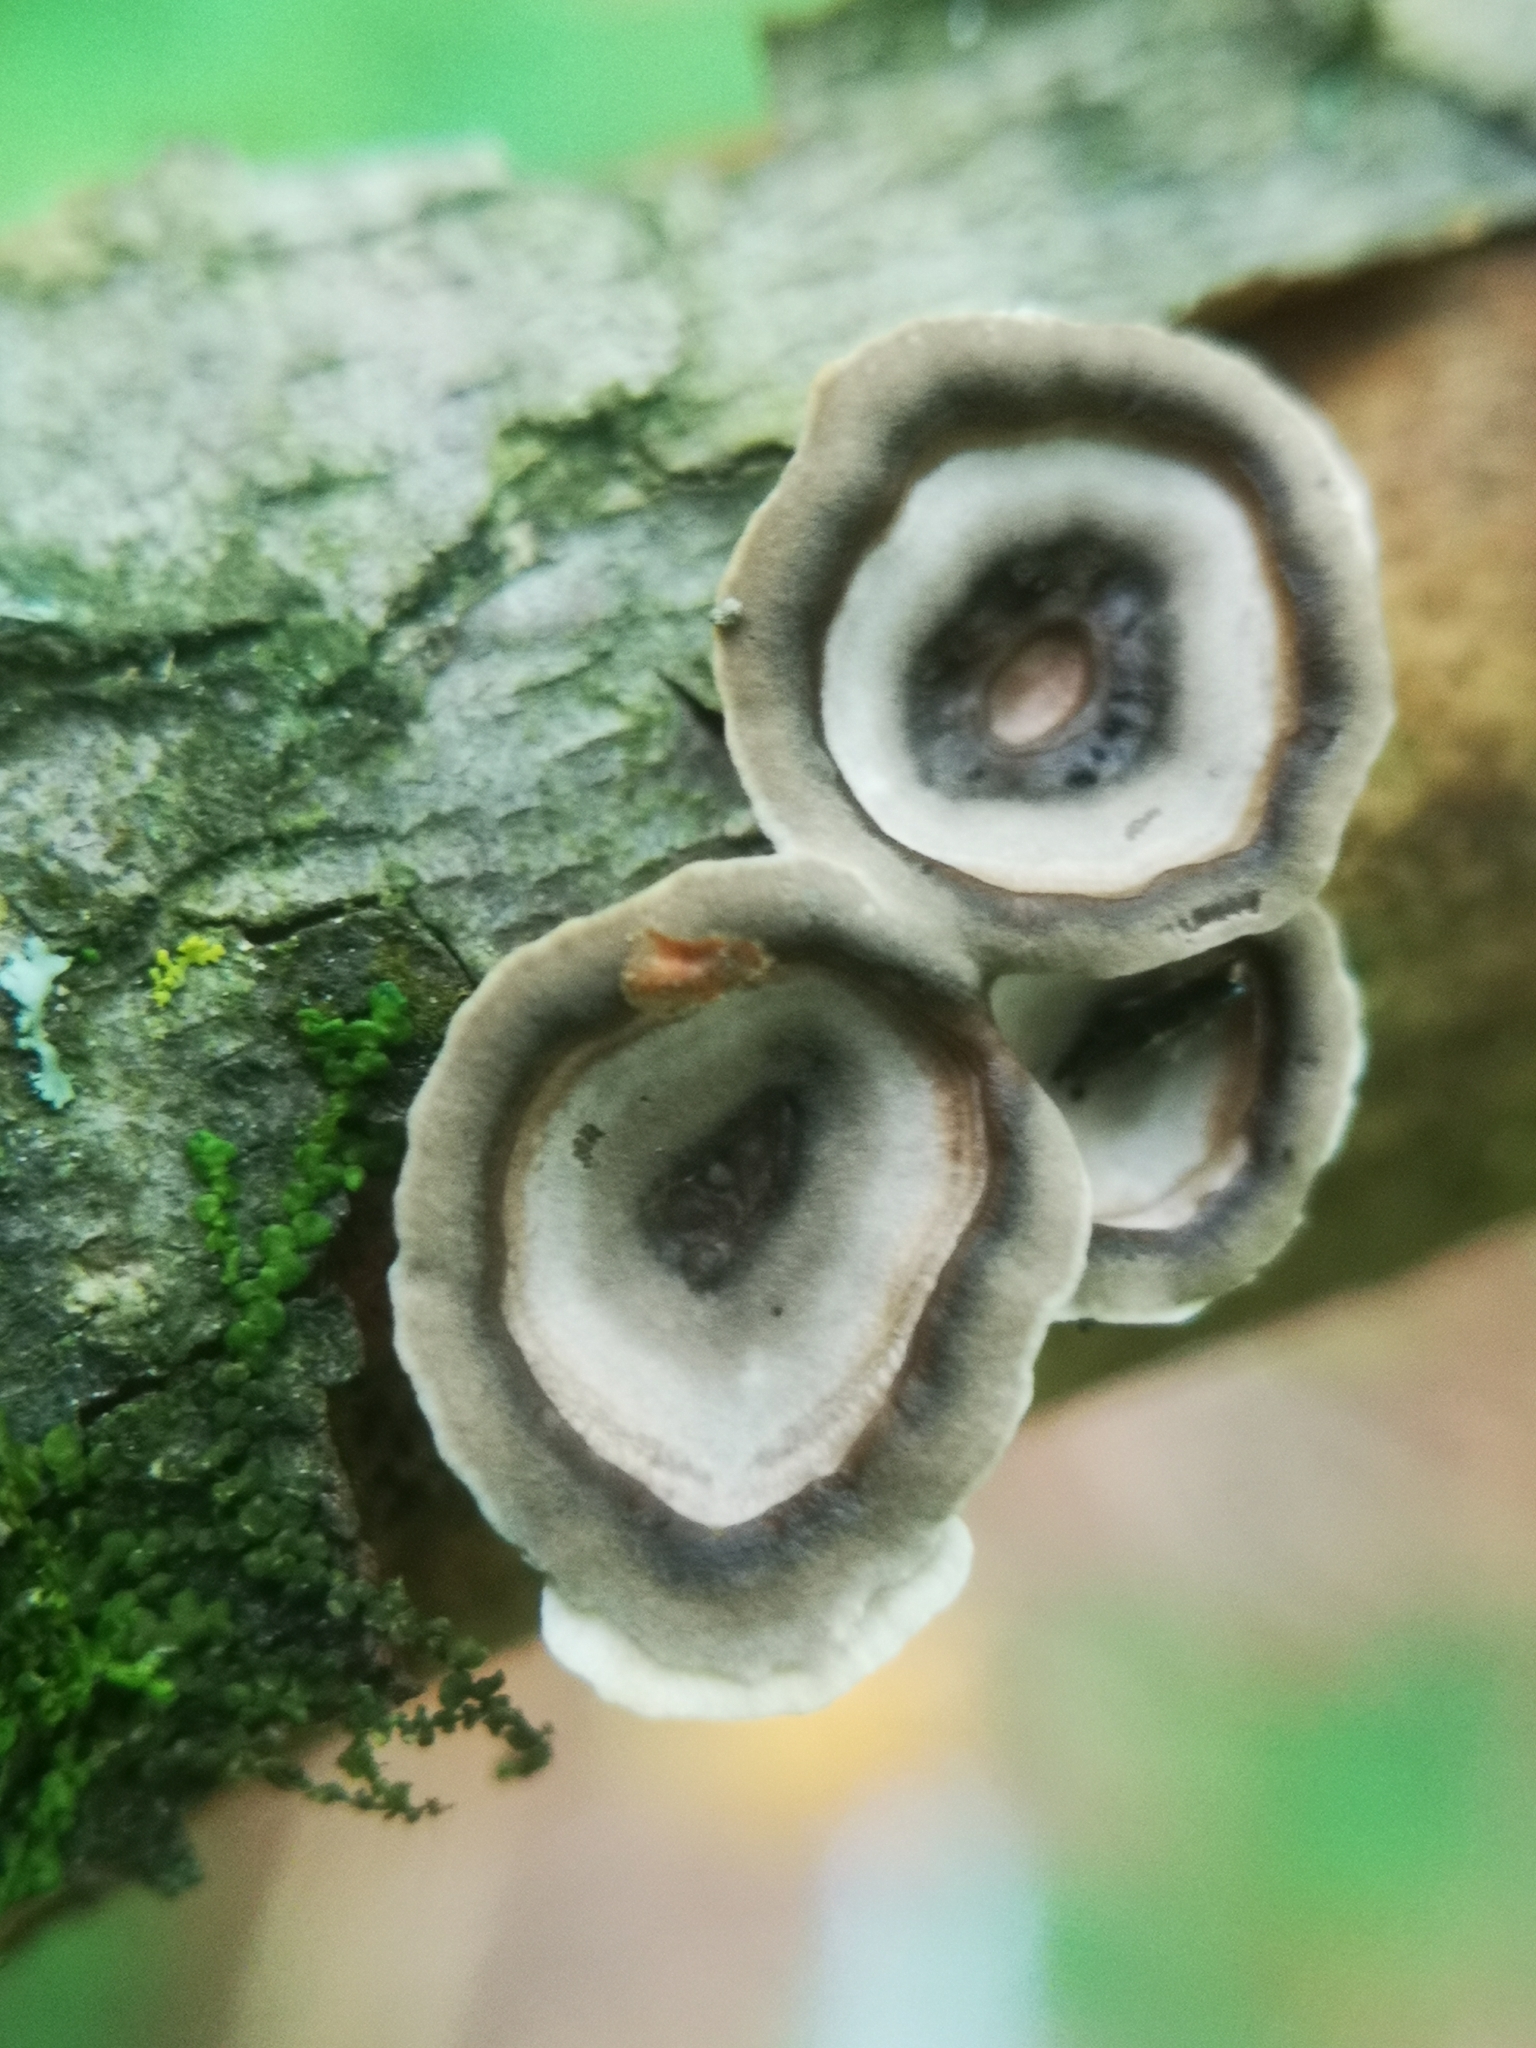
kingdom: Fungi
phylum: Basidiomycota
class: Agaricomycetes
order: Polyporales
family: Polyporaceae
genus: Poronidulus
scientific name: Poronidulus conchifer
